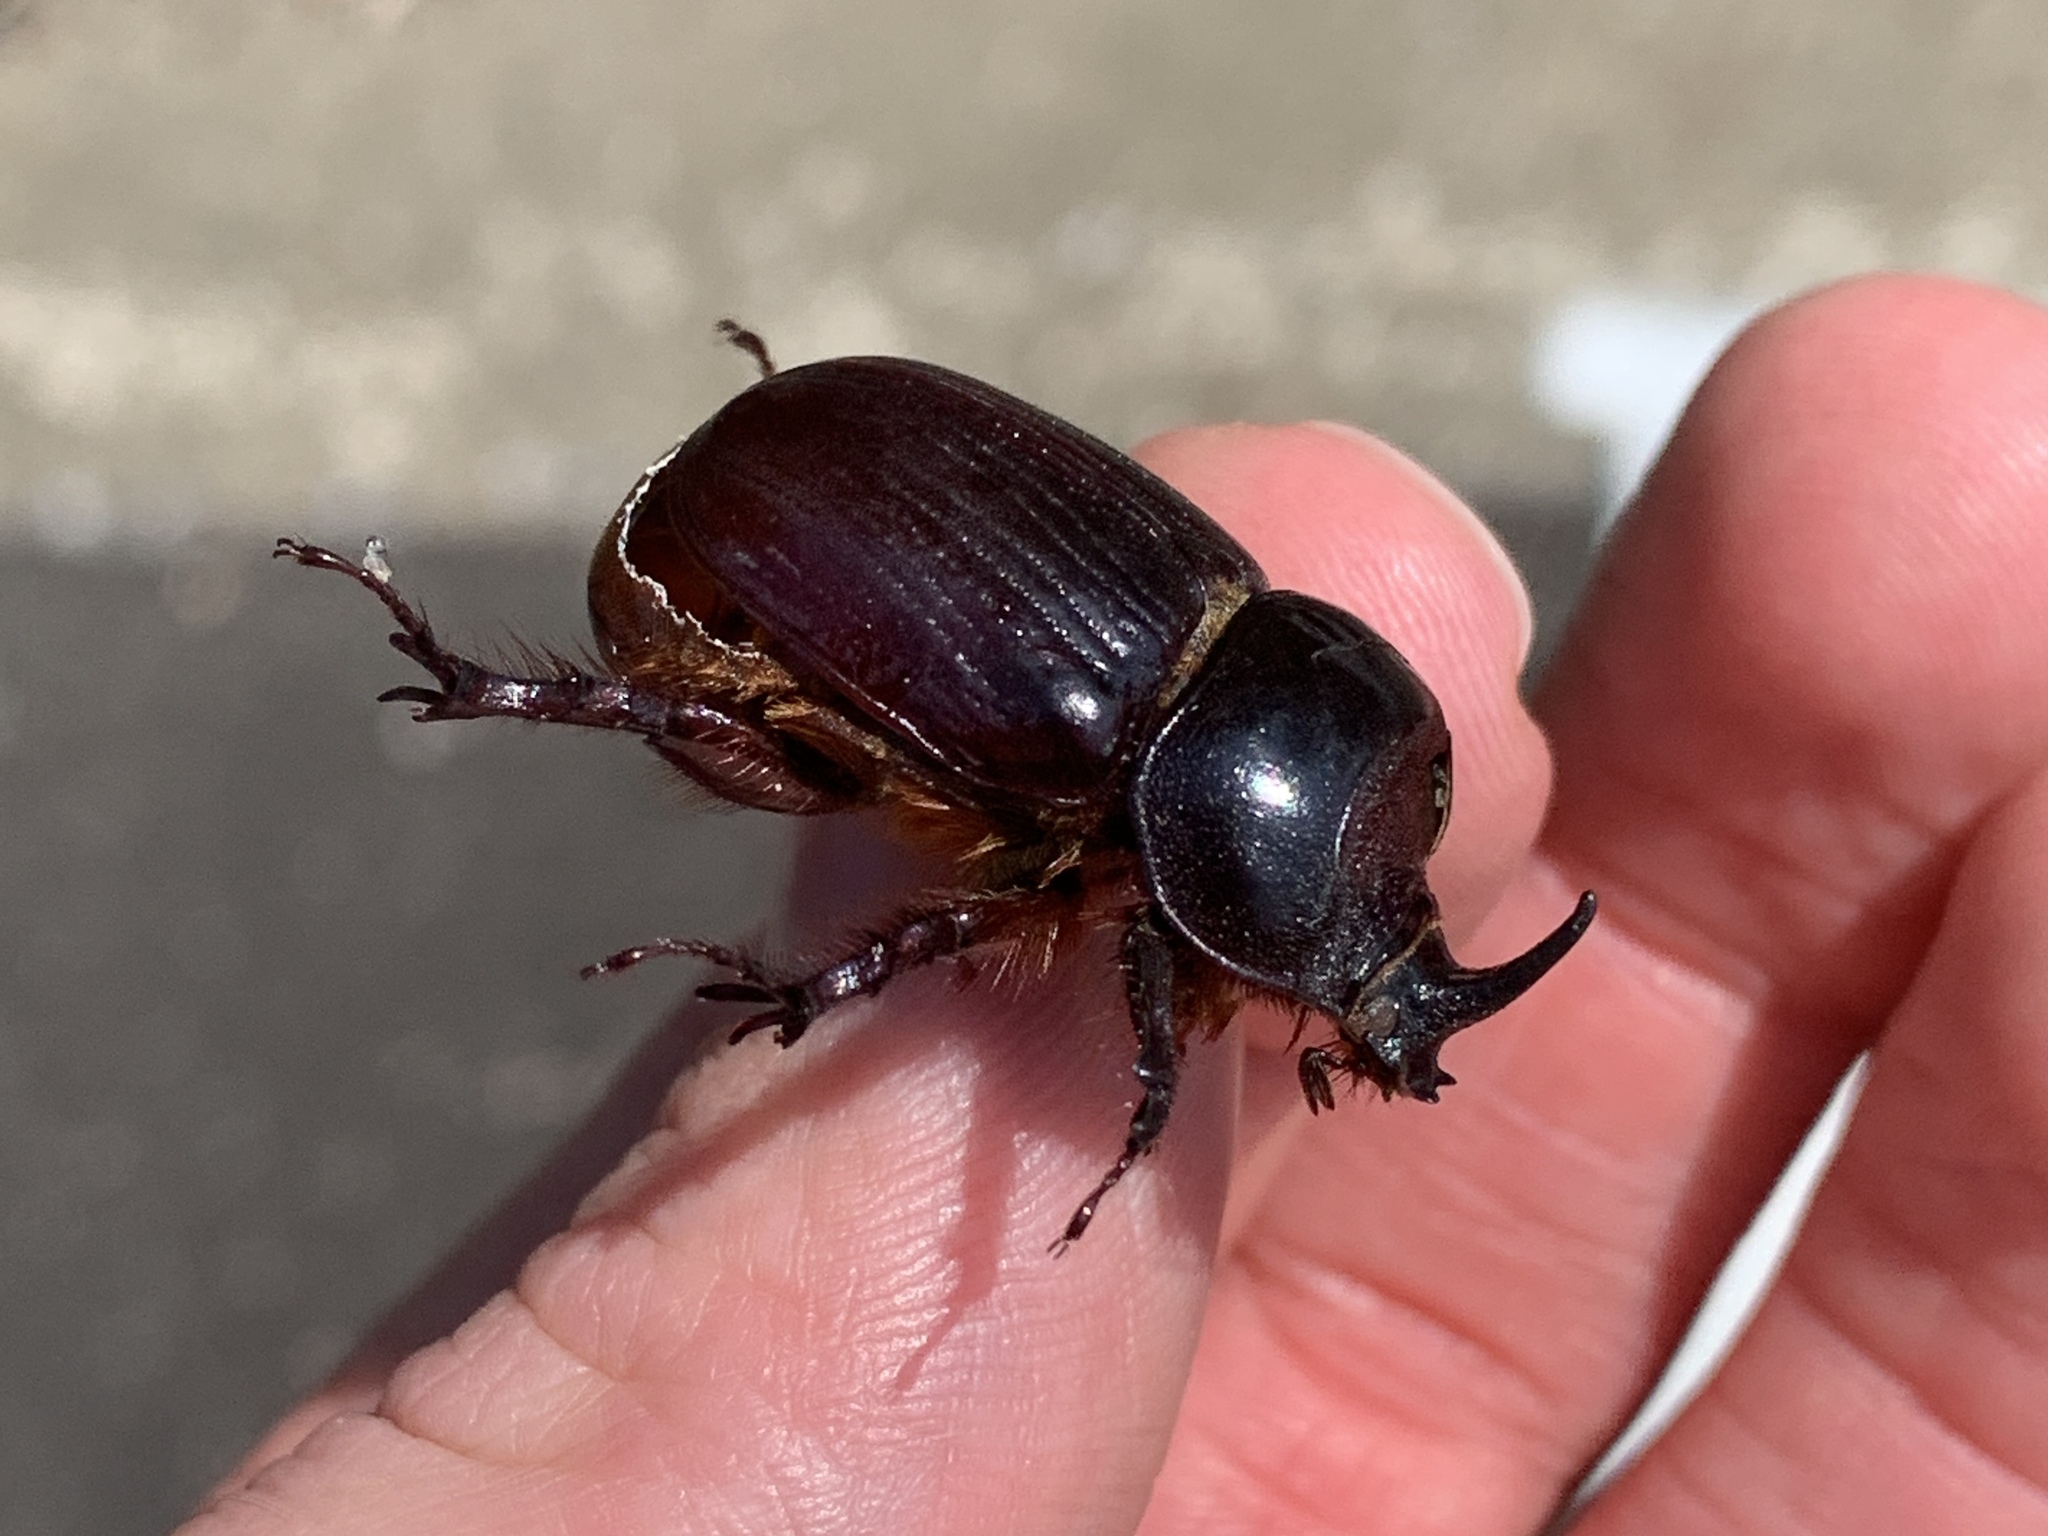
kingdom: Animalia
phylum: Arthropoda
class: Insecta
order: Coleoptera
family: Scarabaeidae
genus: Xyloryctes
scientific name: Xyloryctes jamaicensis
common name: Eastern rhinoceros beetle
